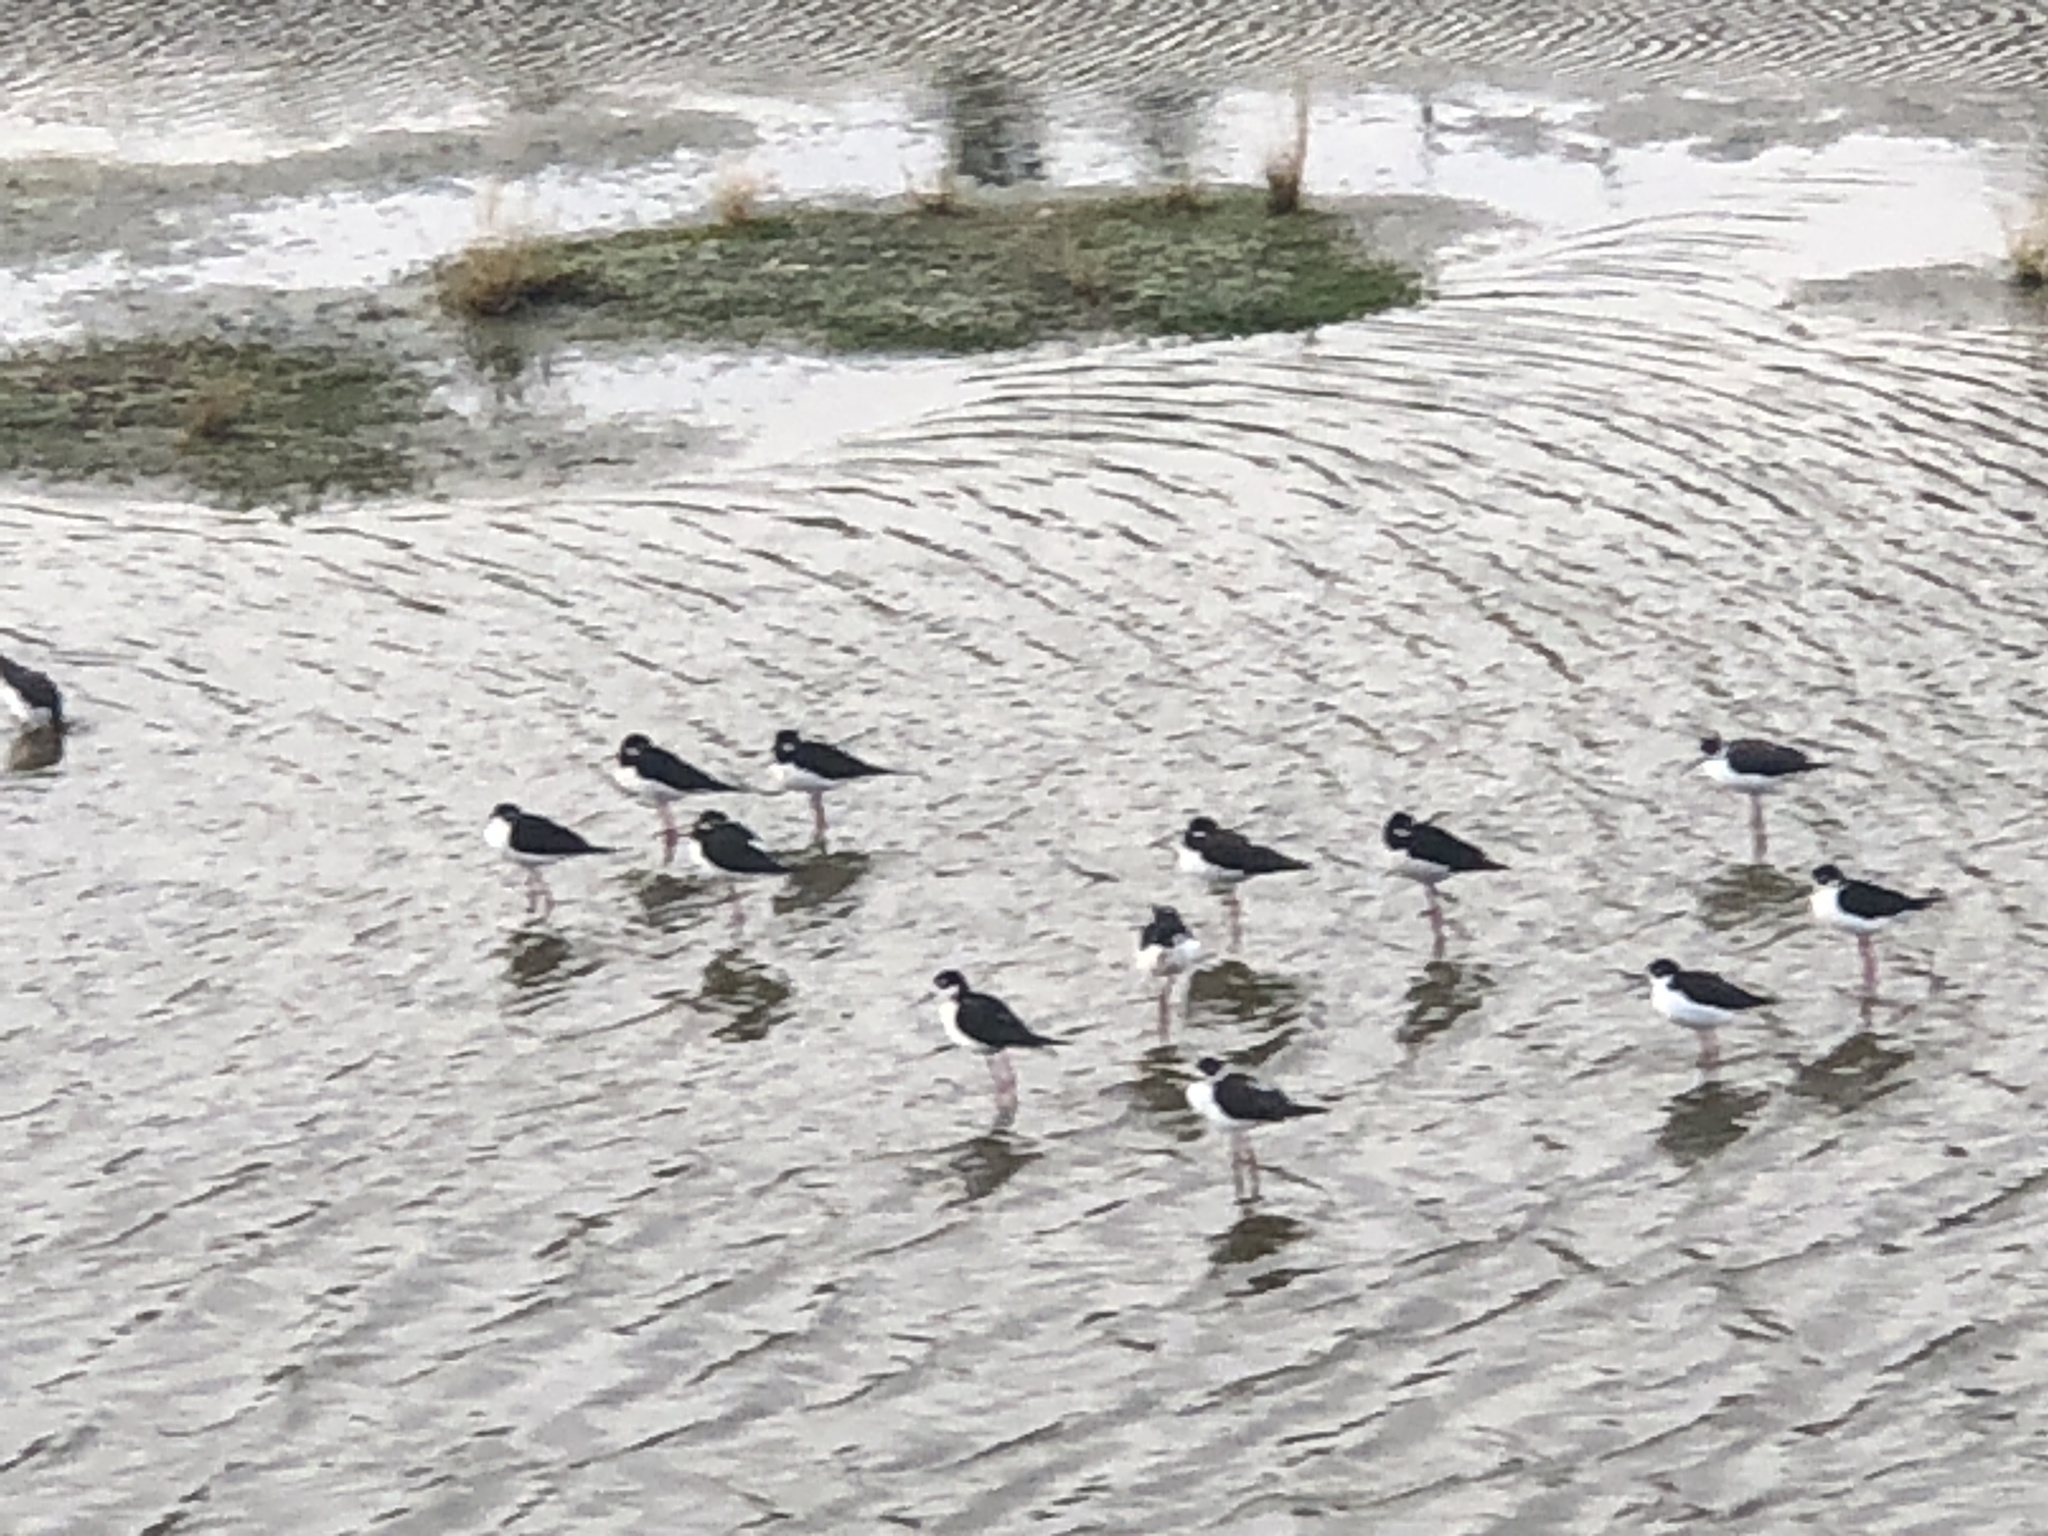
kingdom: Animalia
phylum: Chordata
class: Aves
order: Charadriiformes
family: Recurvirostridae
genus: Himantopus
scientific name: Himantopus mexicanus
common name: Black-necked stilt
